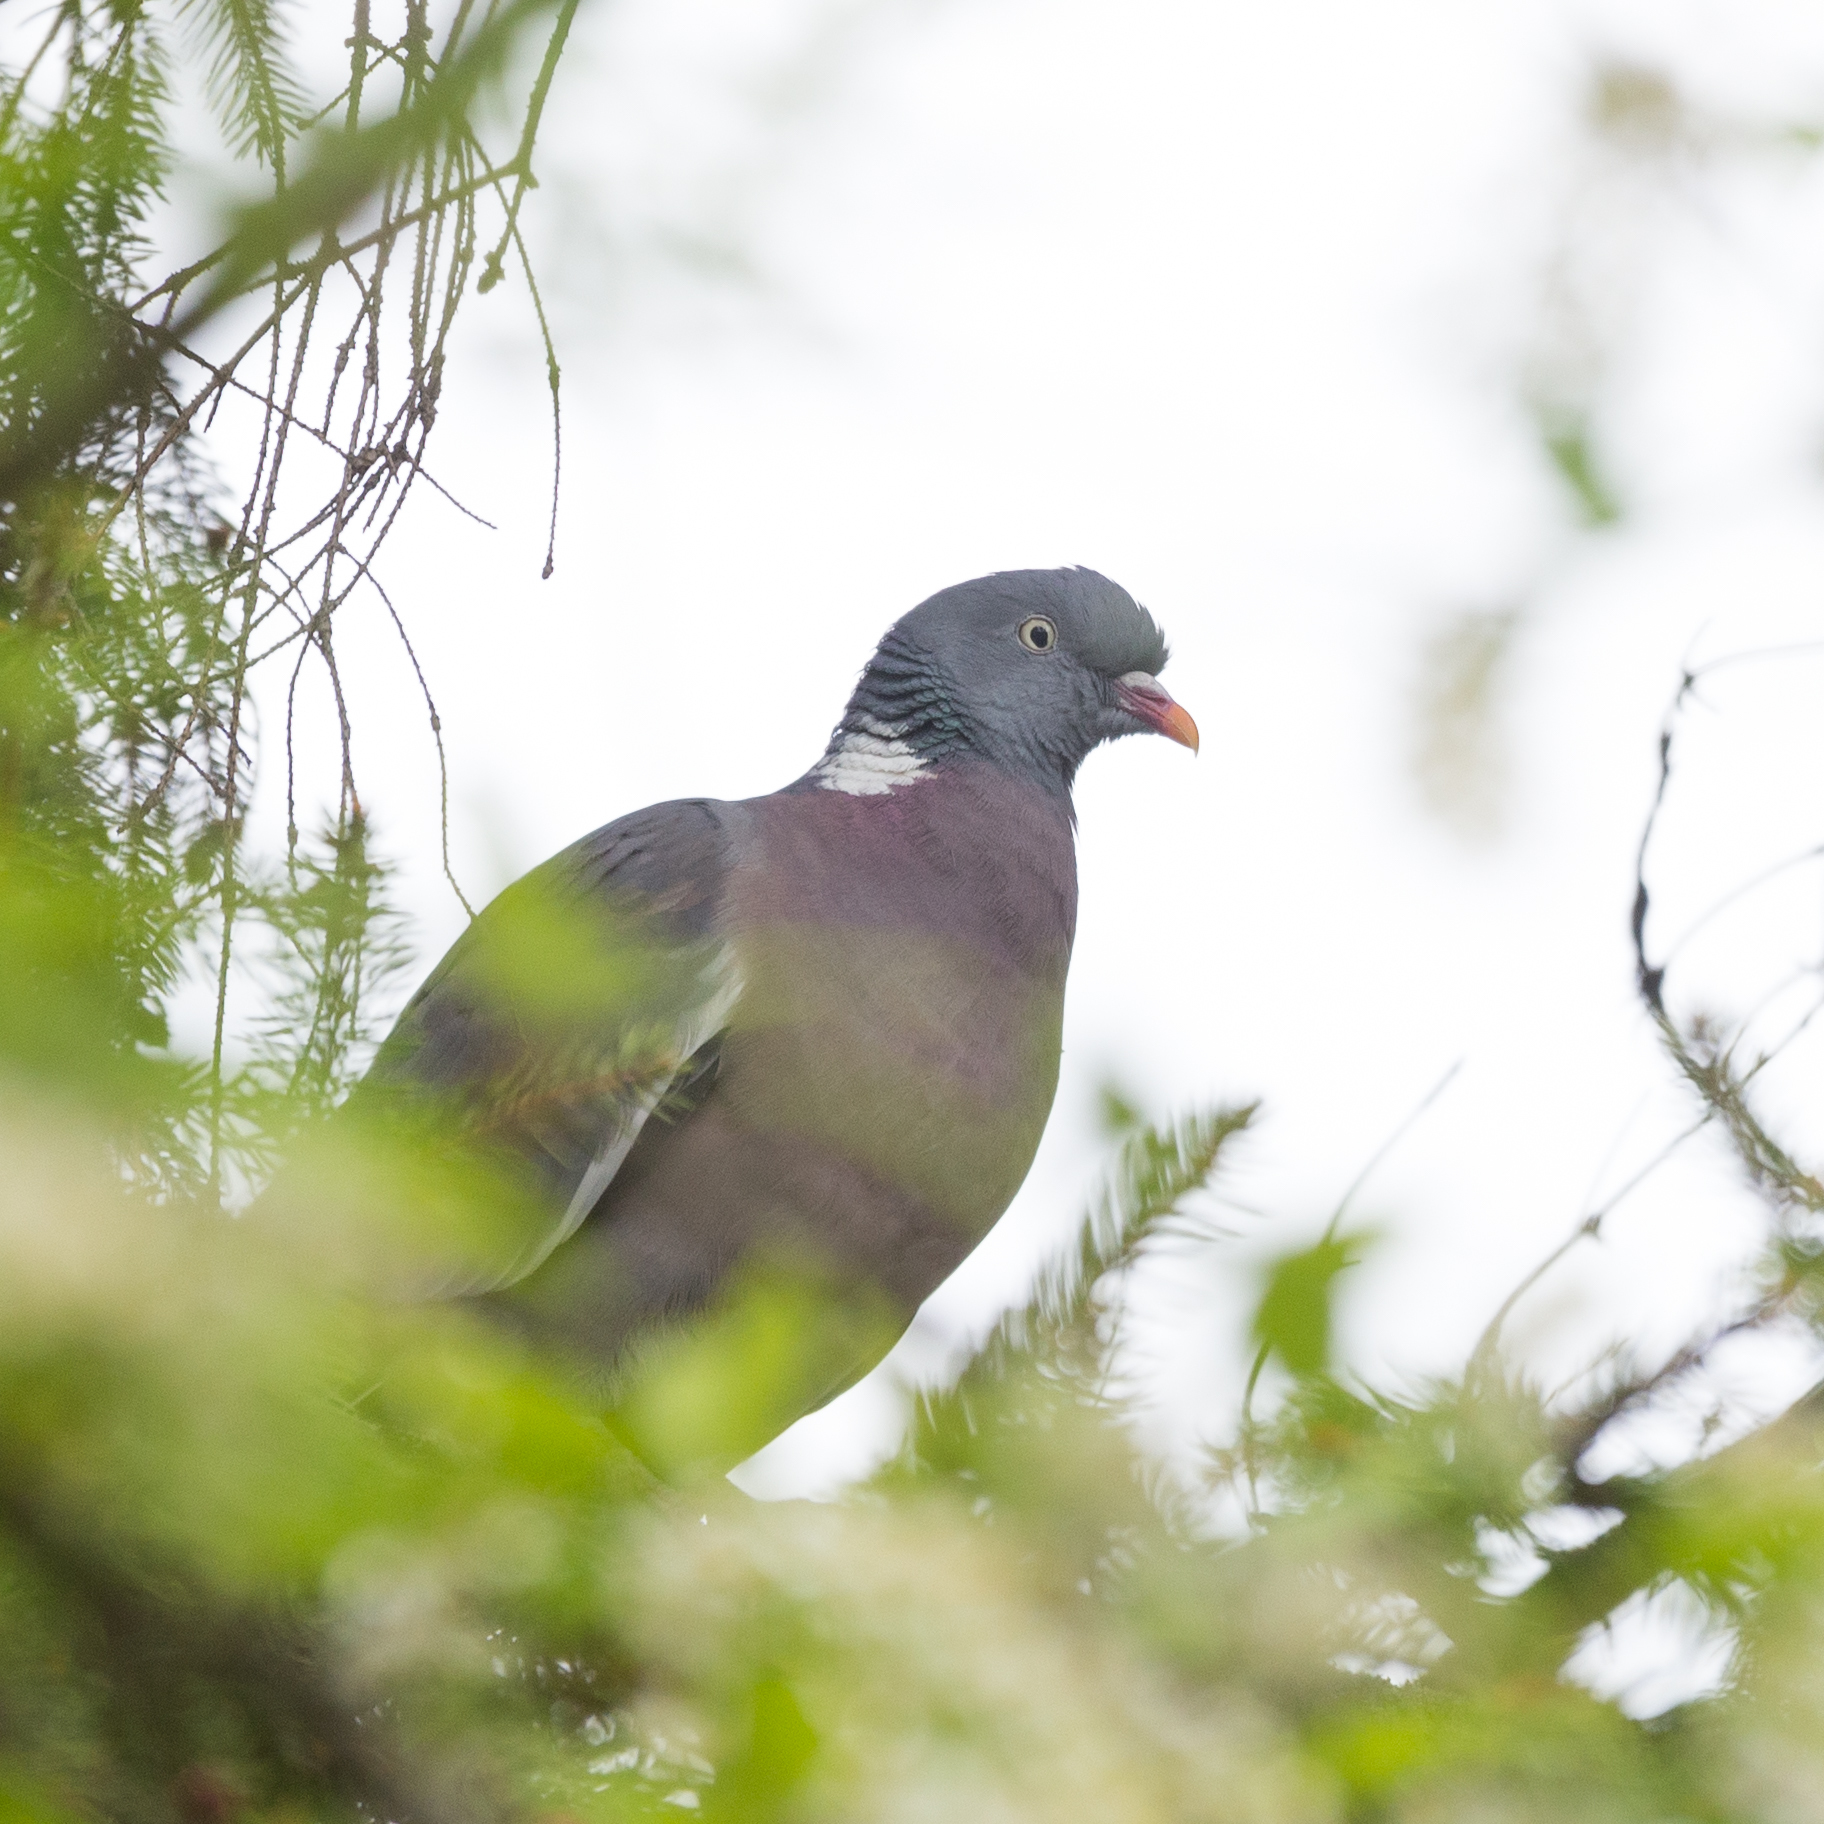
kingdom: Animalia
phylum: Chordata
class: Aves
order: Columbiformes
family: Columbidae
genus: Columba
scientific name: Columba palumbus
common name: Common wood pigeon
